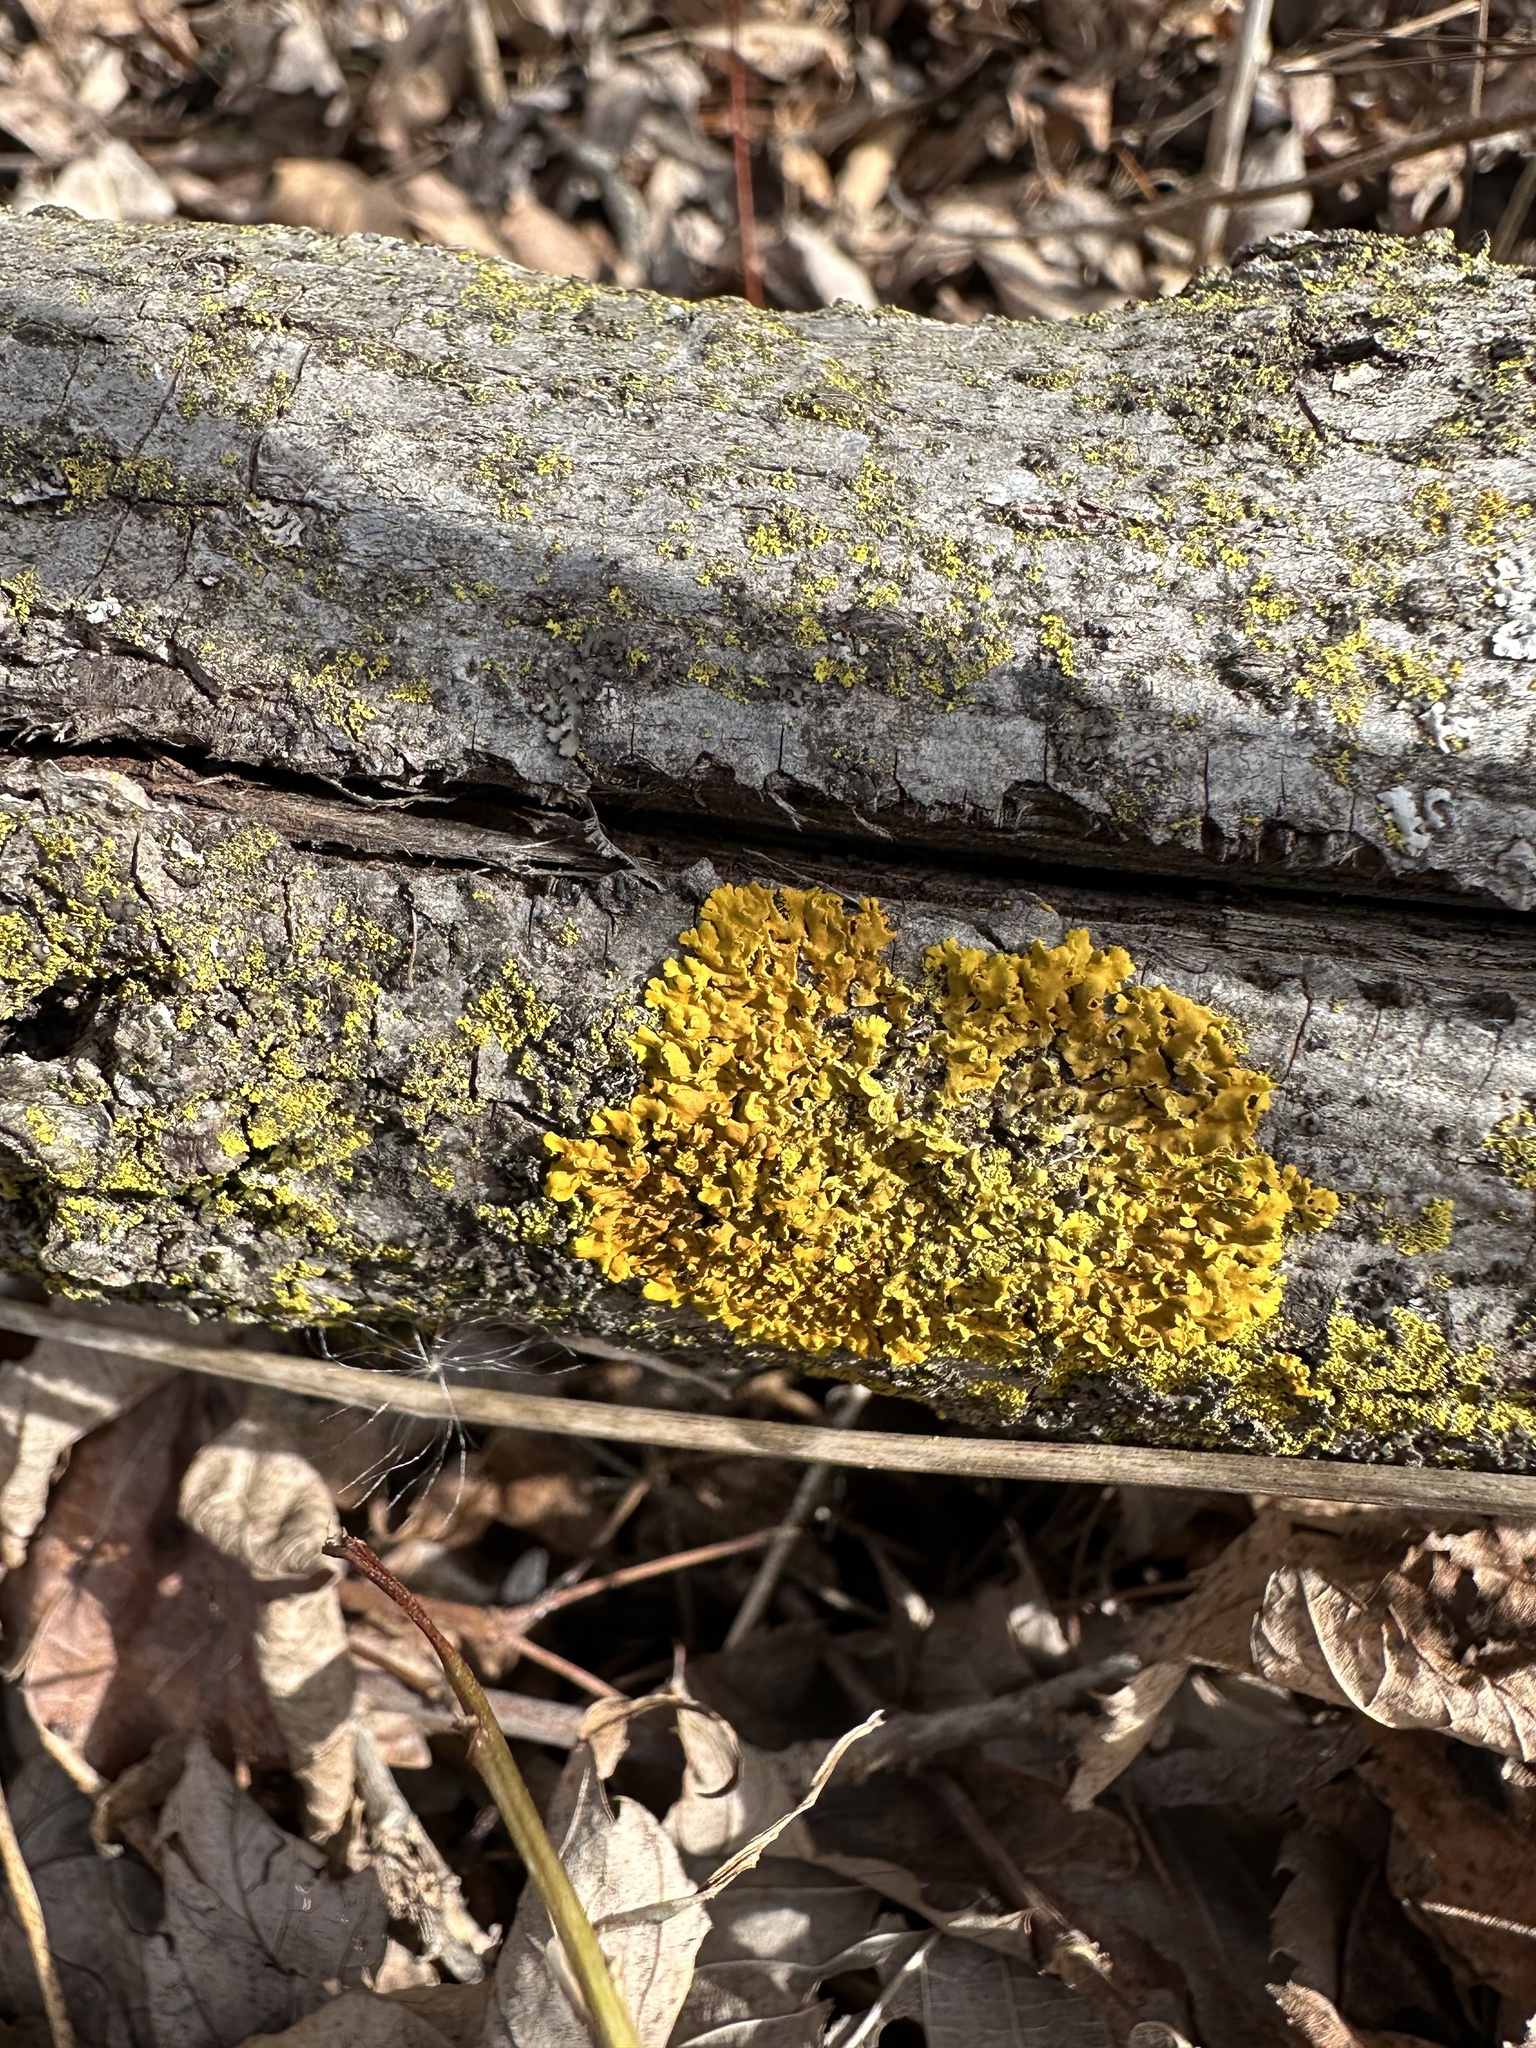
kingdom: Fungi
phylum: Ascomycota
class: Lecanoromycetes
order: Teloschistales
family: Teloschistaceae
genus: Oxneria
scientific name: Oxneria fallax
